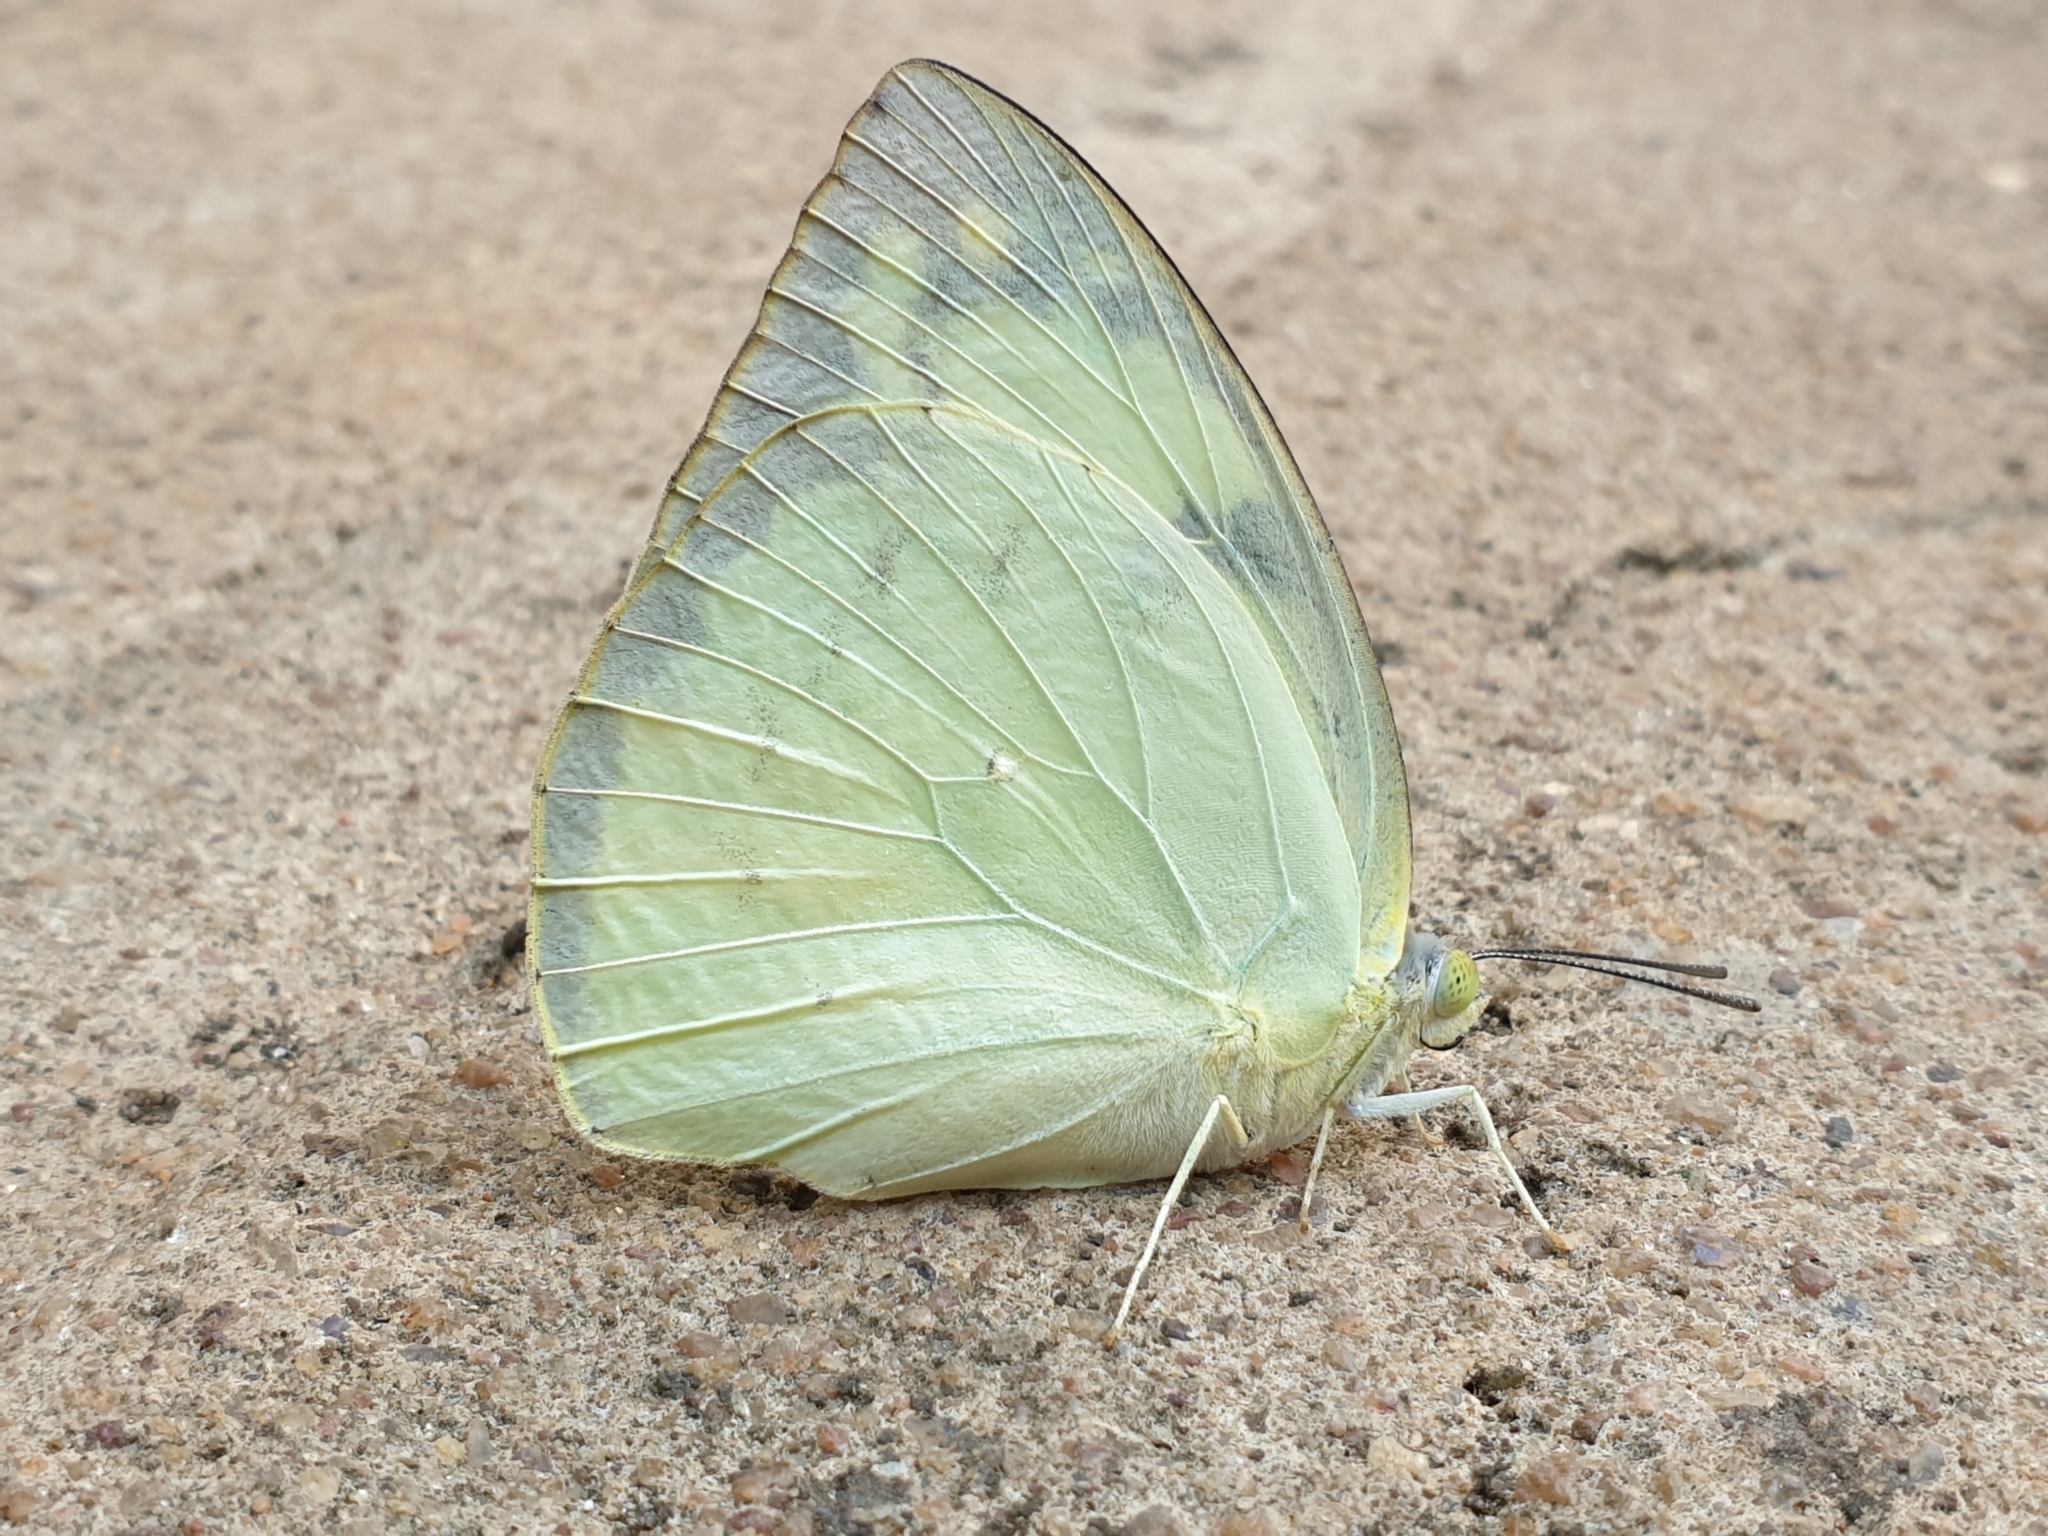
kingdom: Animalia
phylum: Arthropoda
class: Insecta
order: Lepidoptera
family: Pieridae
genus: Catopsilia
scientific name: Catopsilia pomona
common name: Common emigrant
